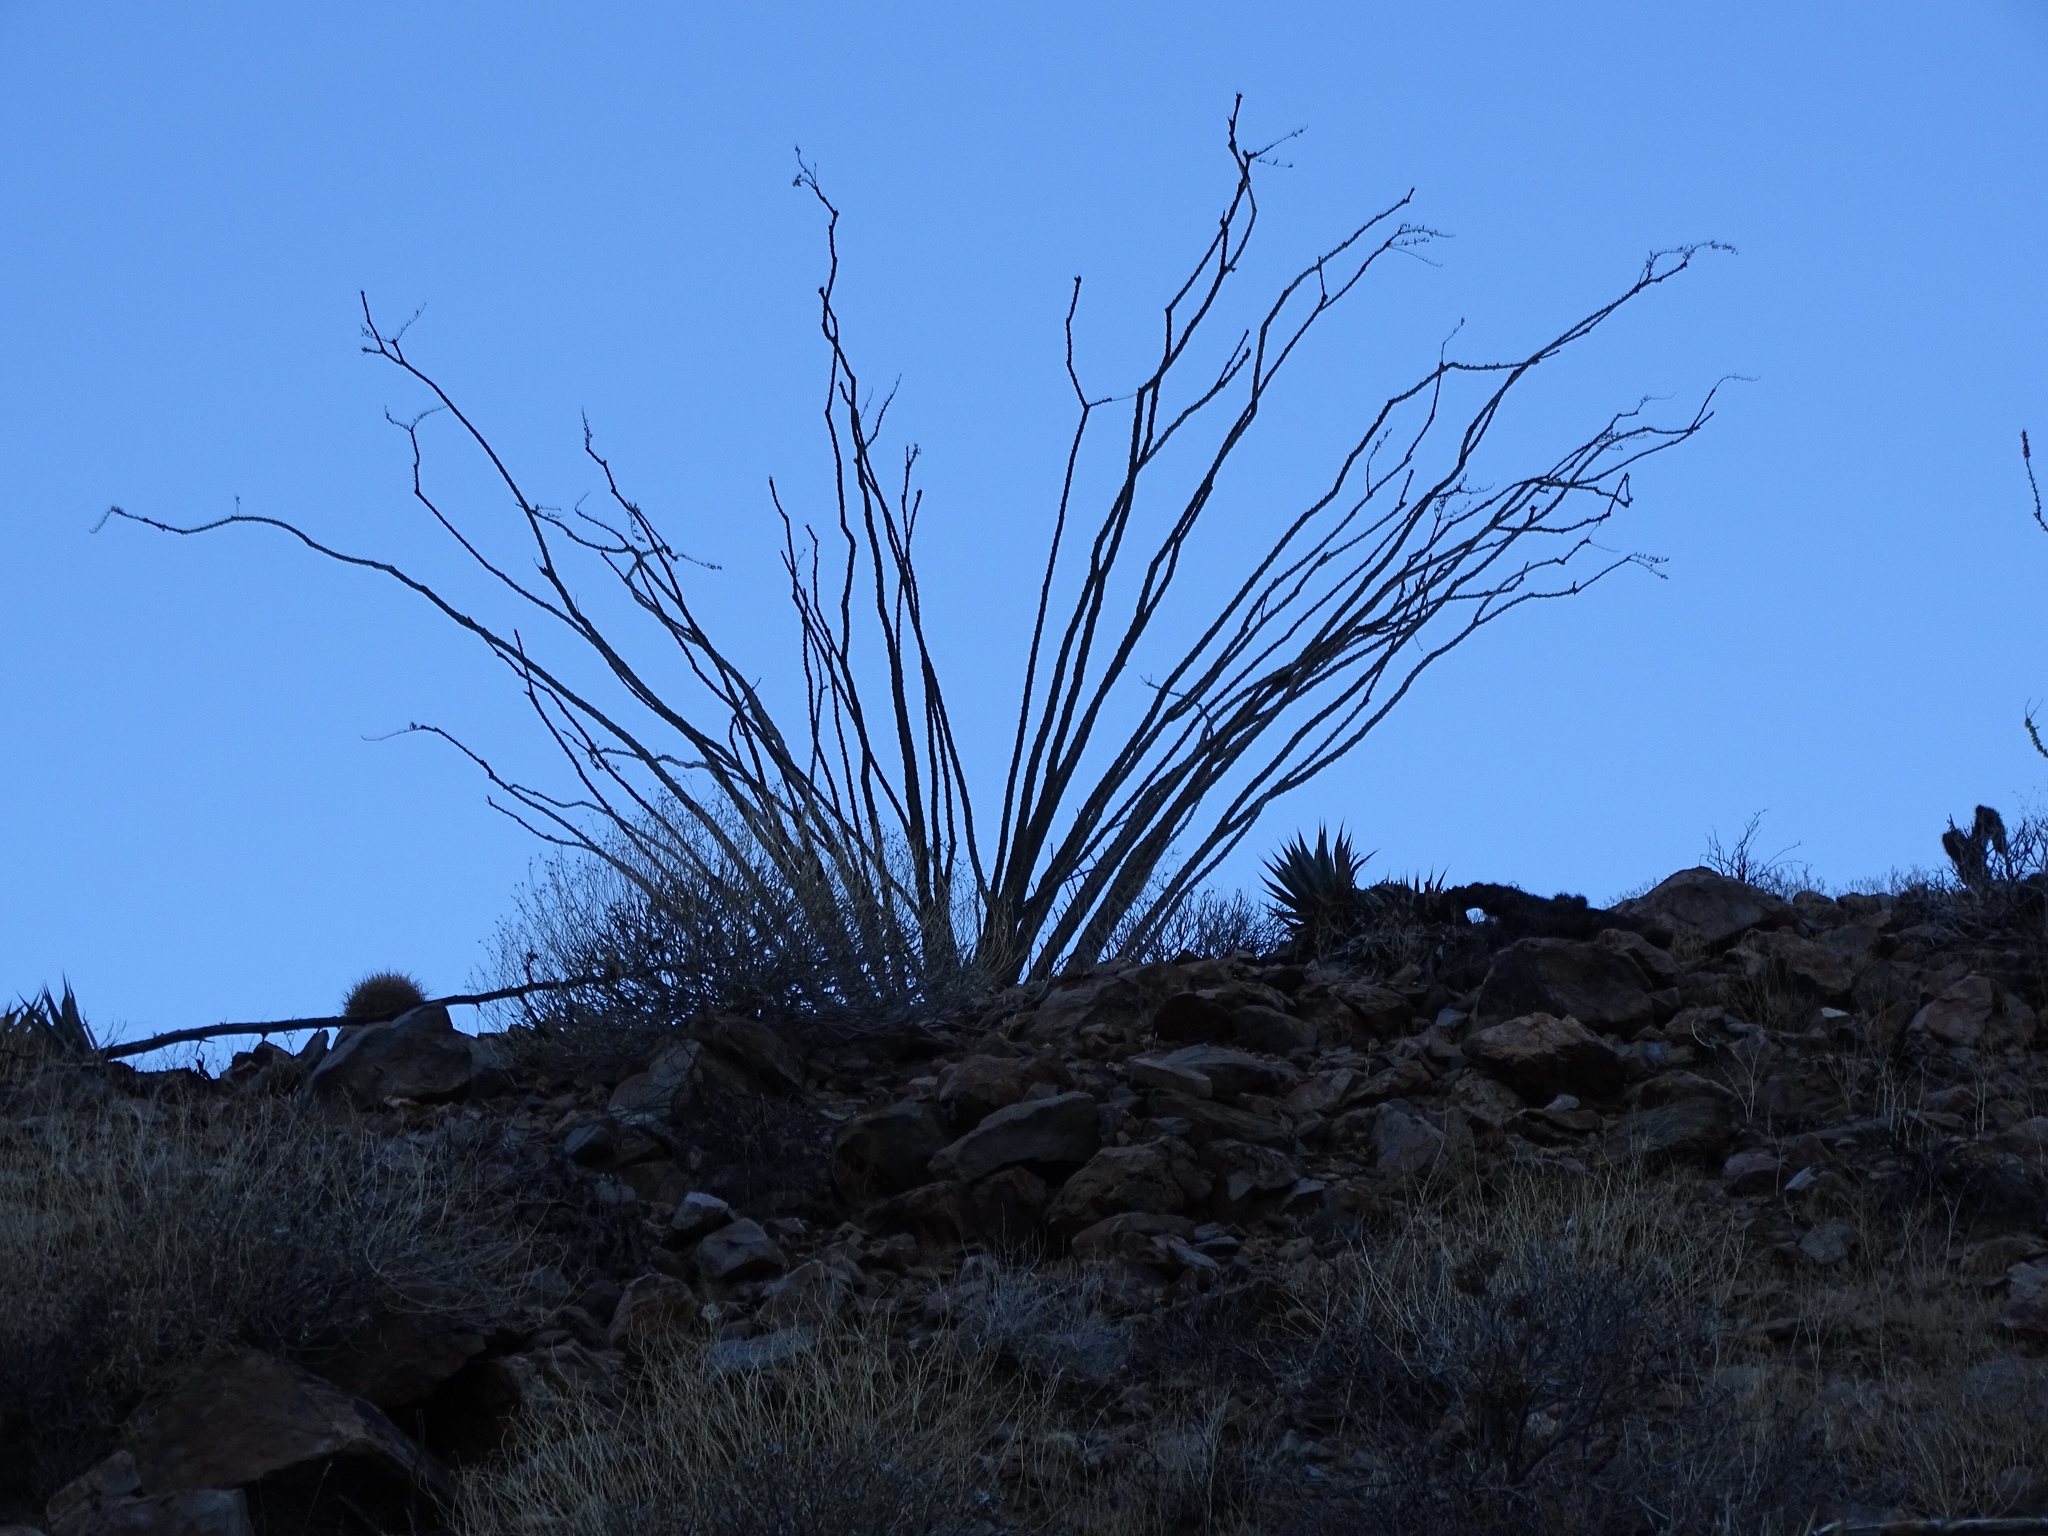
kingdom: Plantae
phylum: Tracheophyta
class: Magnoliopsida
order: Ericales
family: Fouquieriaceae
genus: Fouquieria
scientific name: Fouquieria splendens
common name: Vine-cactus
